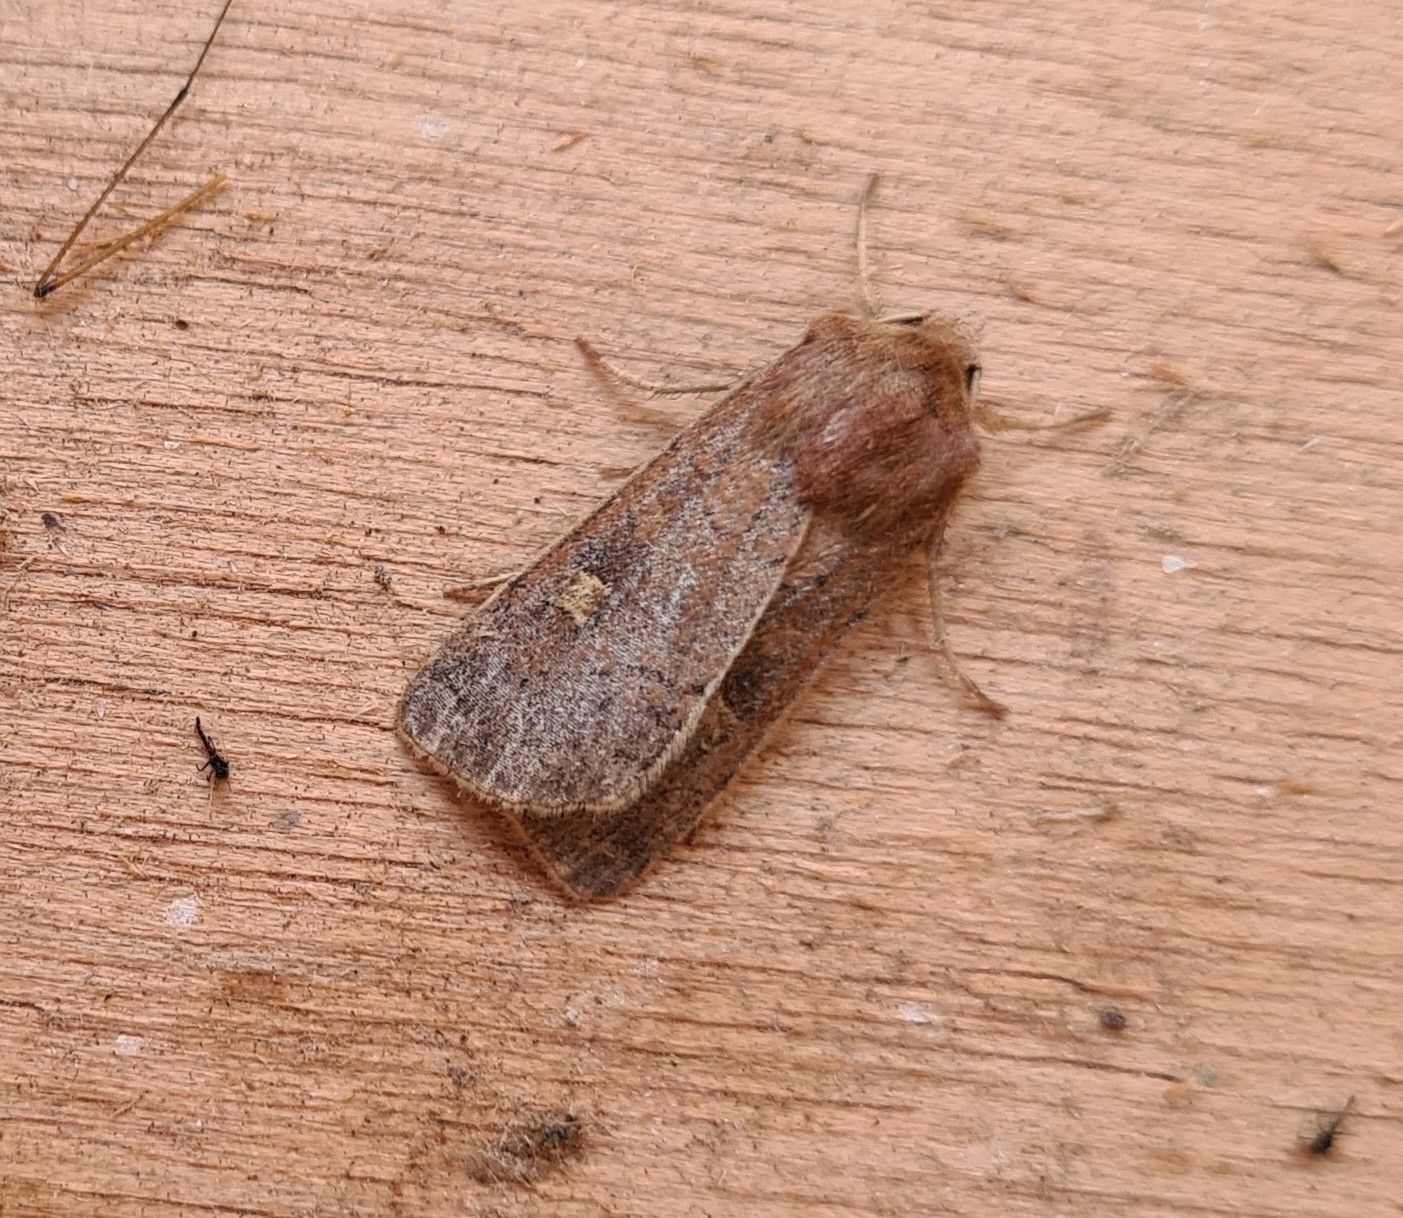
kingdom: Animalia
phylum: Arthropoda
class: Insecta
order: Lepidoptera
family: Noctuidae
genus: Xestia
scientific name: Xestia xanthographa
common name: Square-spot rustic
